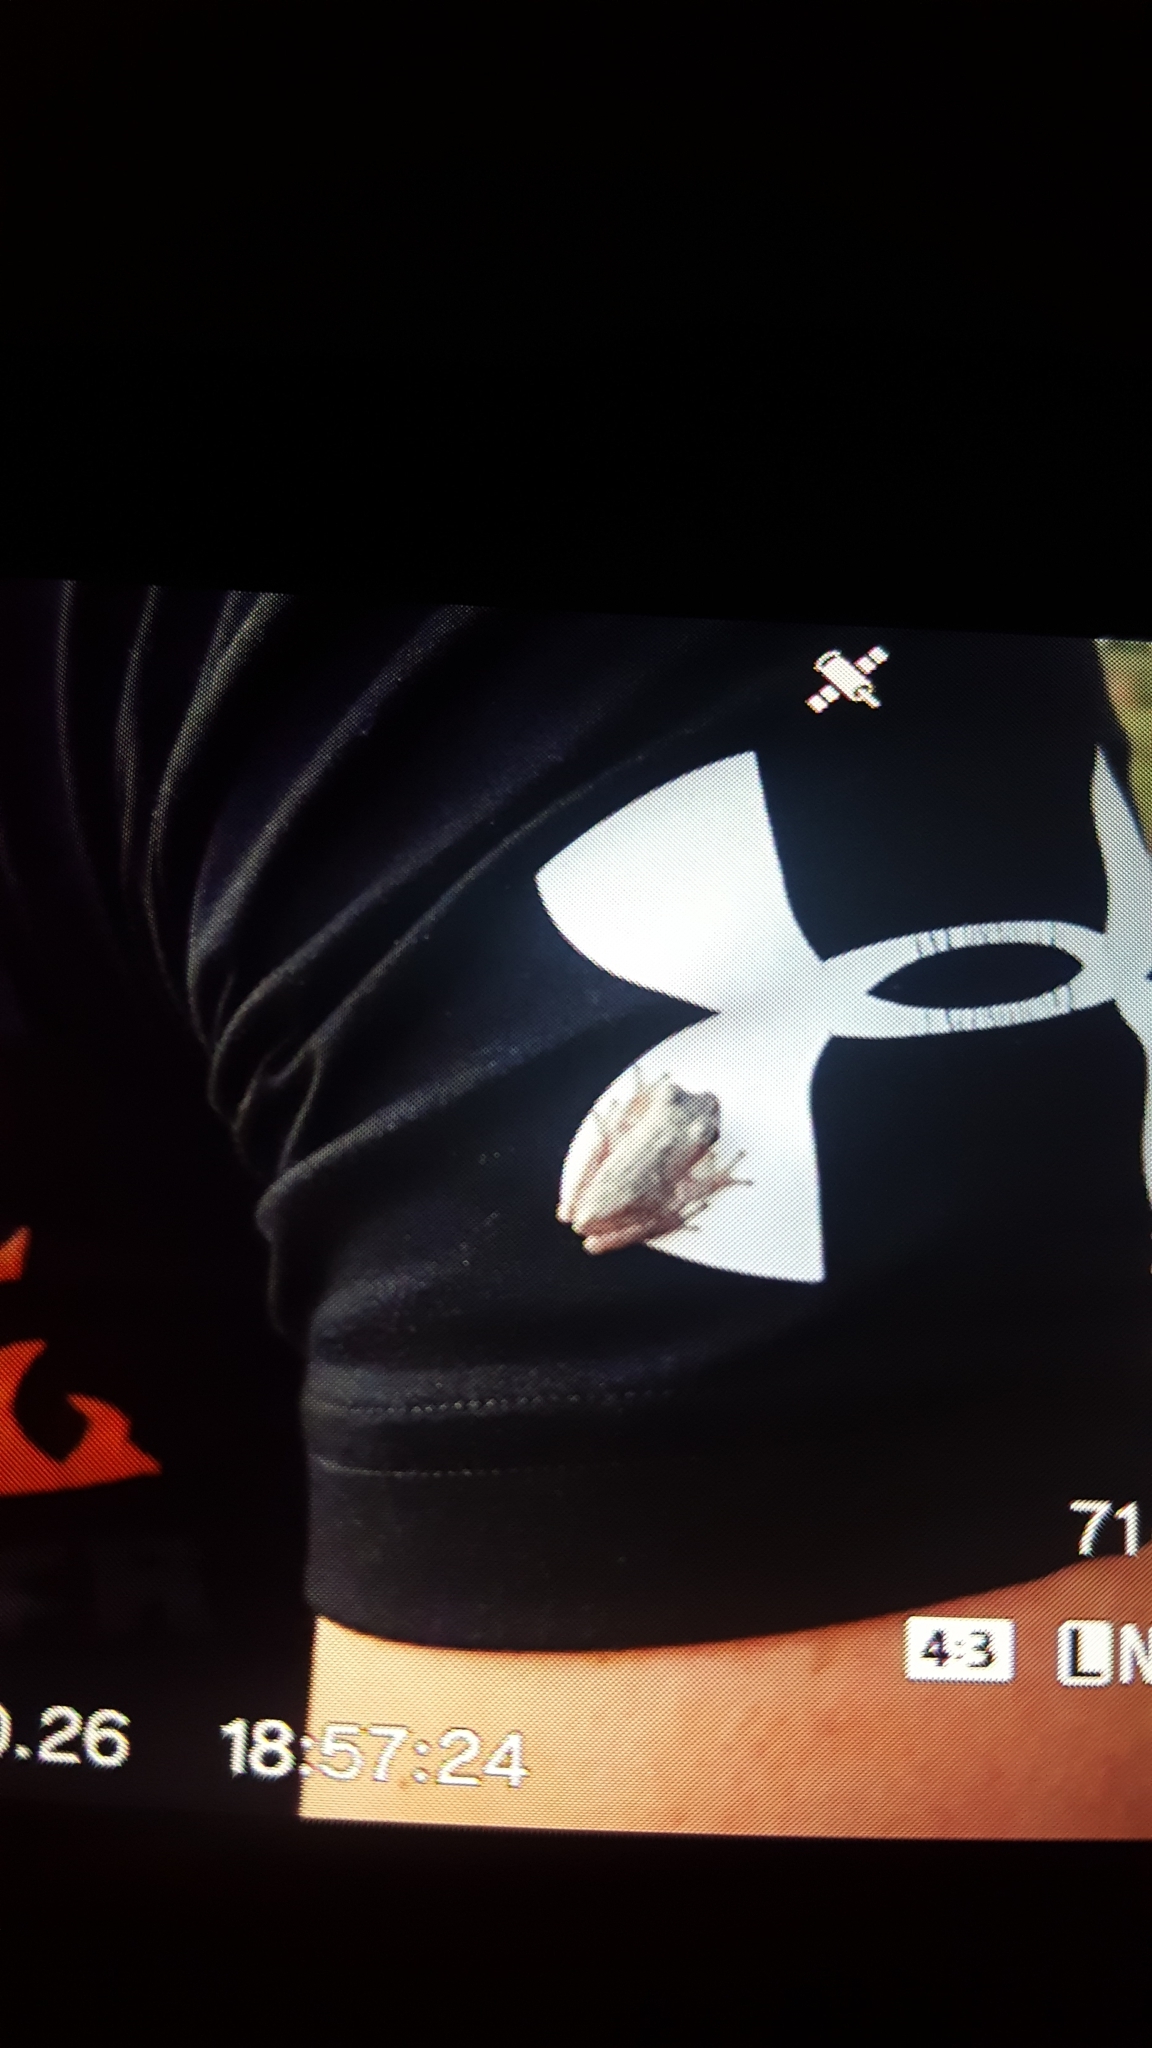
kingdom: Animalia
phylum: Chordata
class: Amphibia
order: Anura
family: Hylidae
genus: Hyla
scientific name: Hyla femoralis
